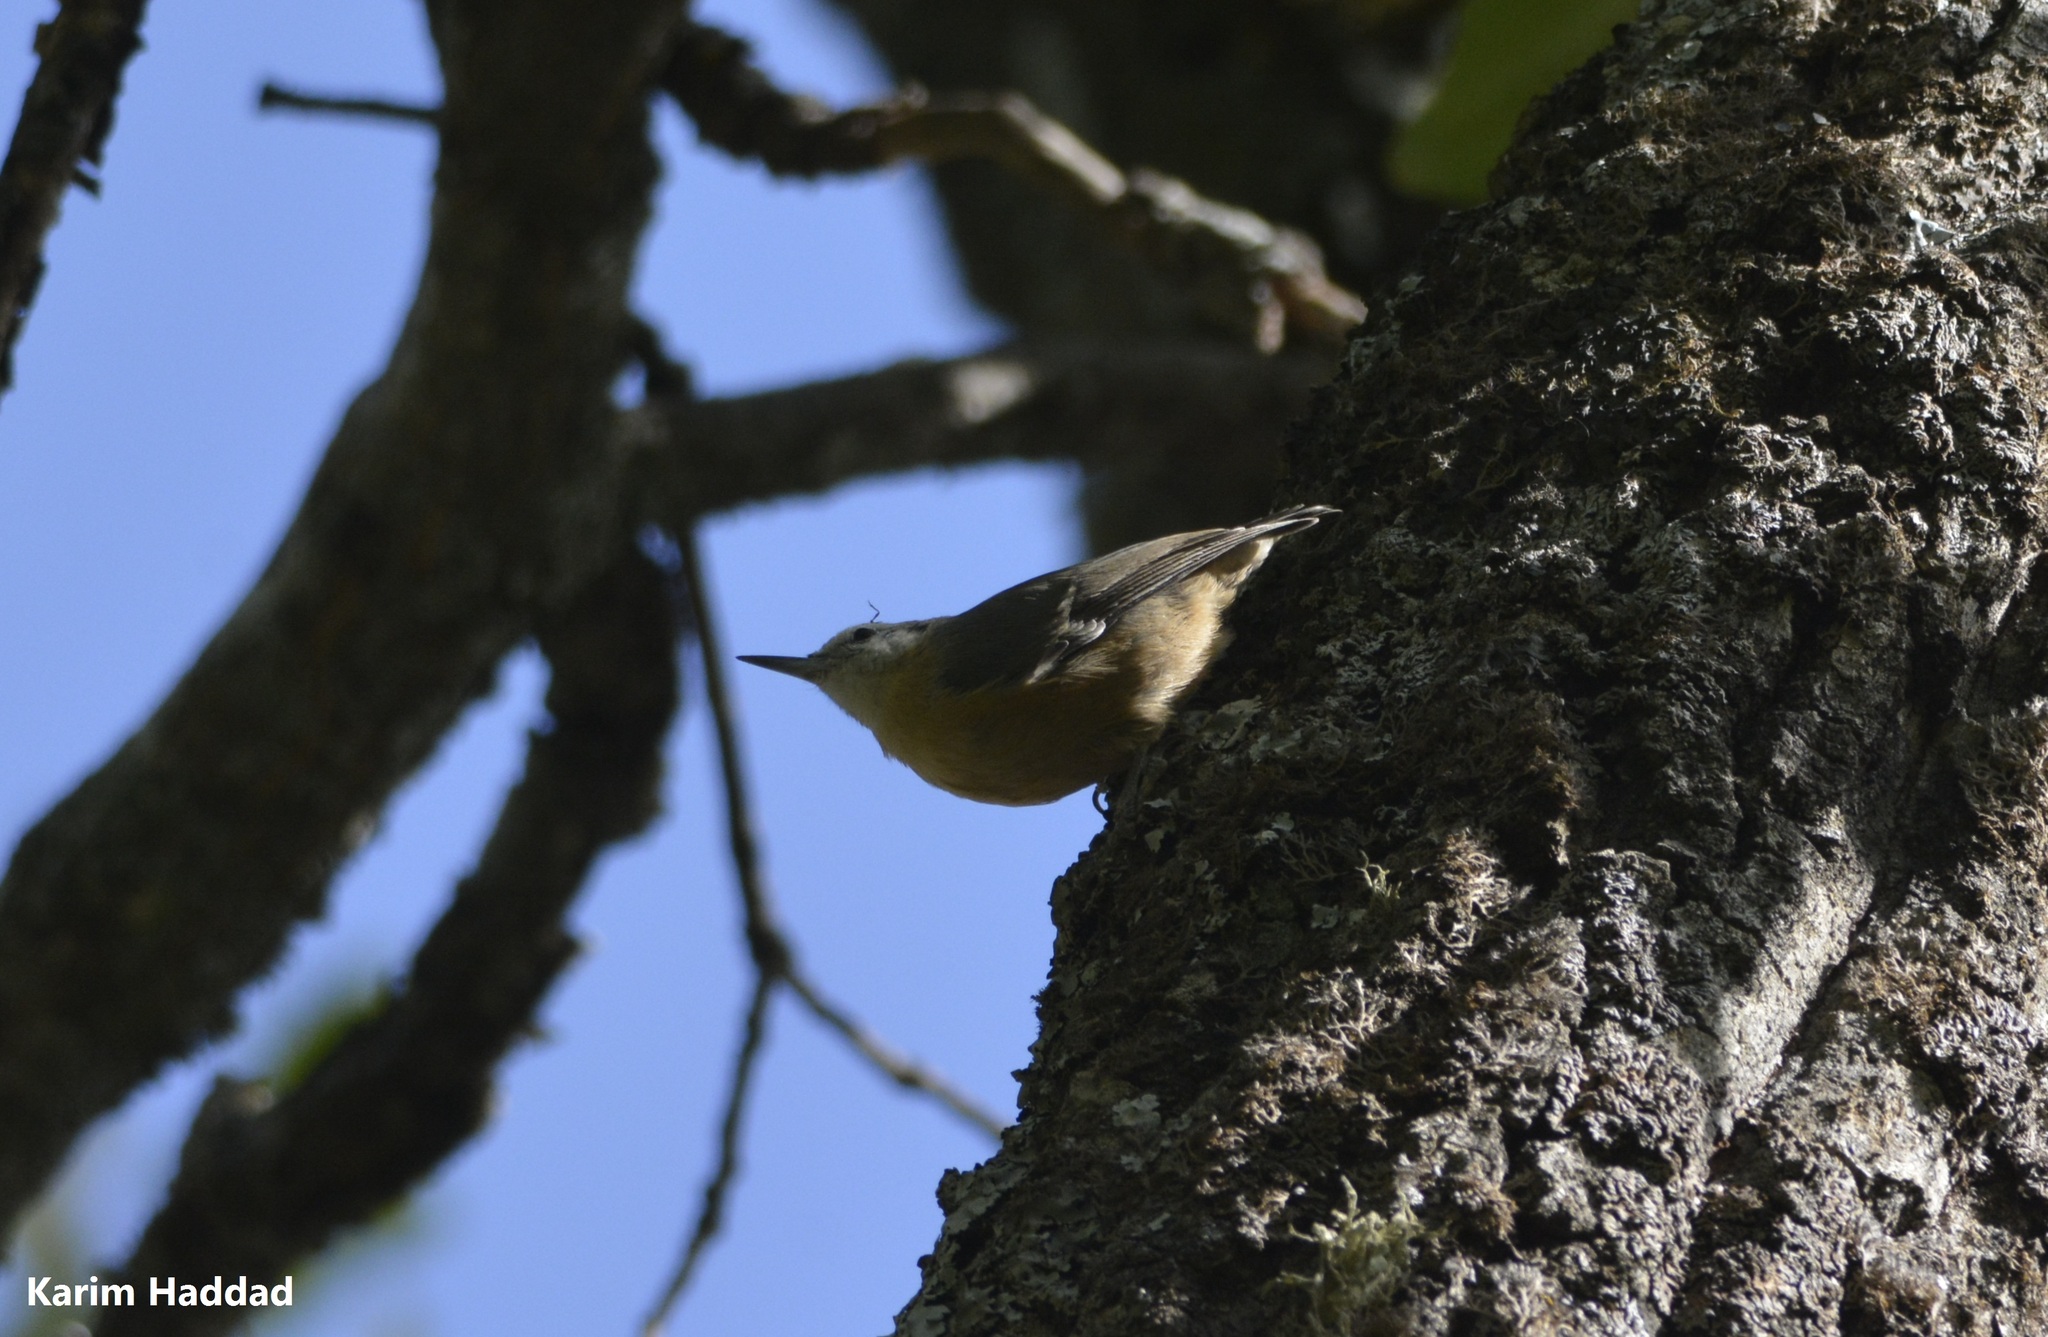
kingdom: Animalia
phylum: Chordata
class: Aves
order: Passeriformes
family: Sittidae
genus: Sitta
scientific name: Sitta ledanti
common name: Algerian nuthatch
